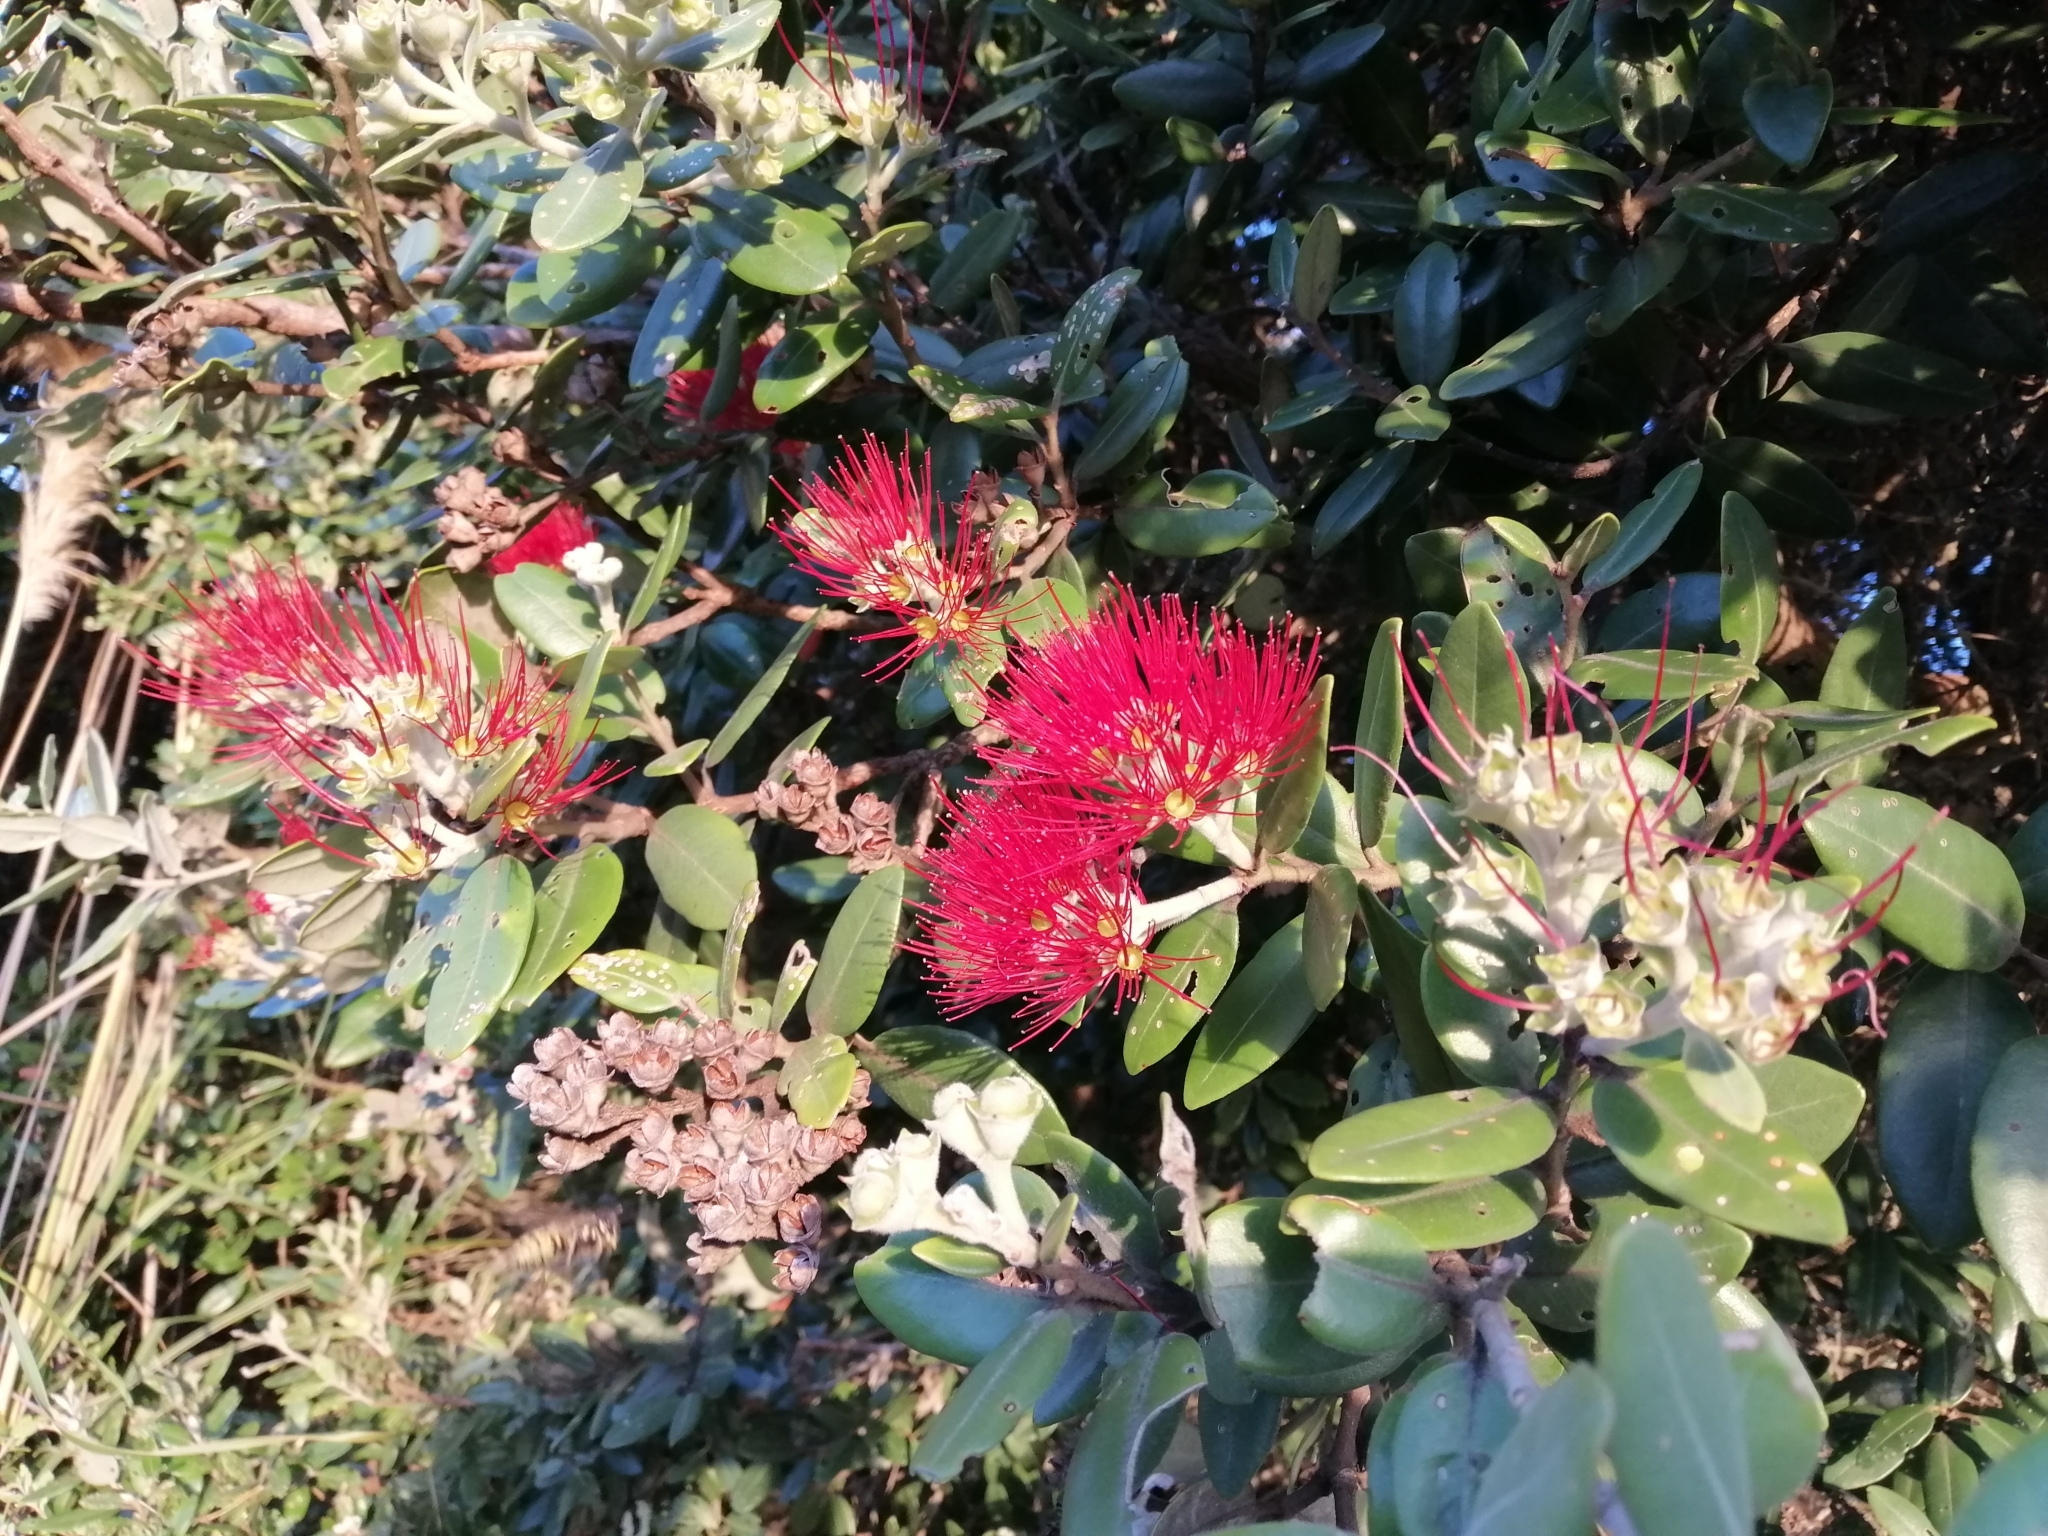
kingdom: Plantae
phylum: Tracheophyta
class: Magnoliopsida
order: Myrtales
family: Myrtaceae
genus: Metrosideros
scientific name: Metrosideros excelsa
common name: New zealand christmastree
